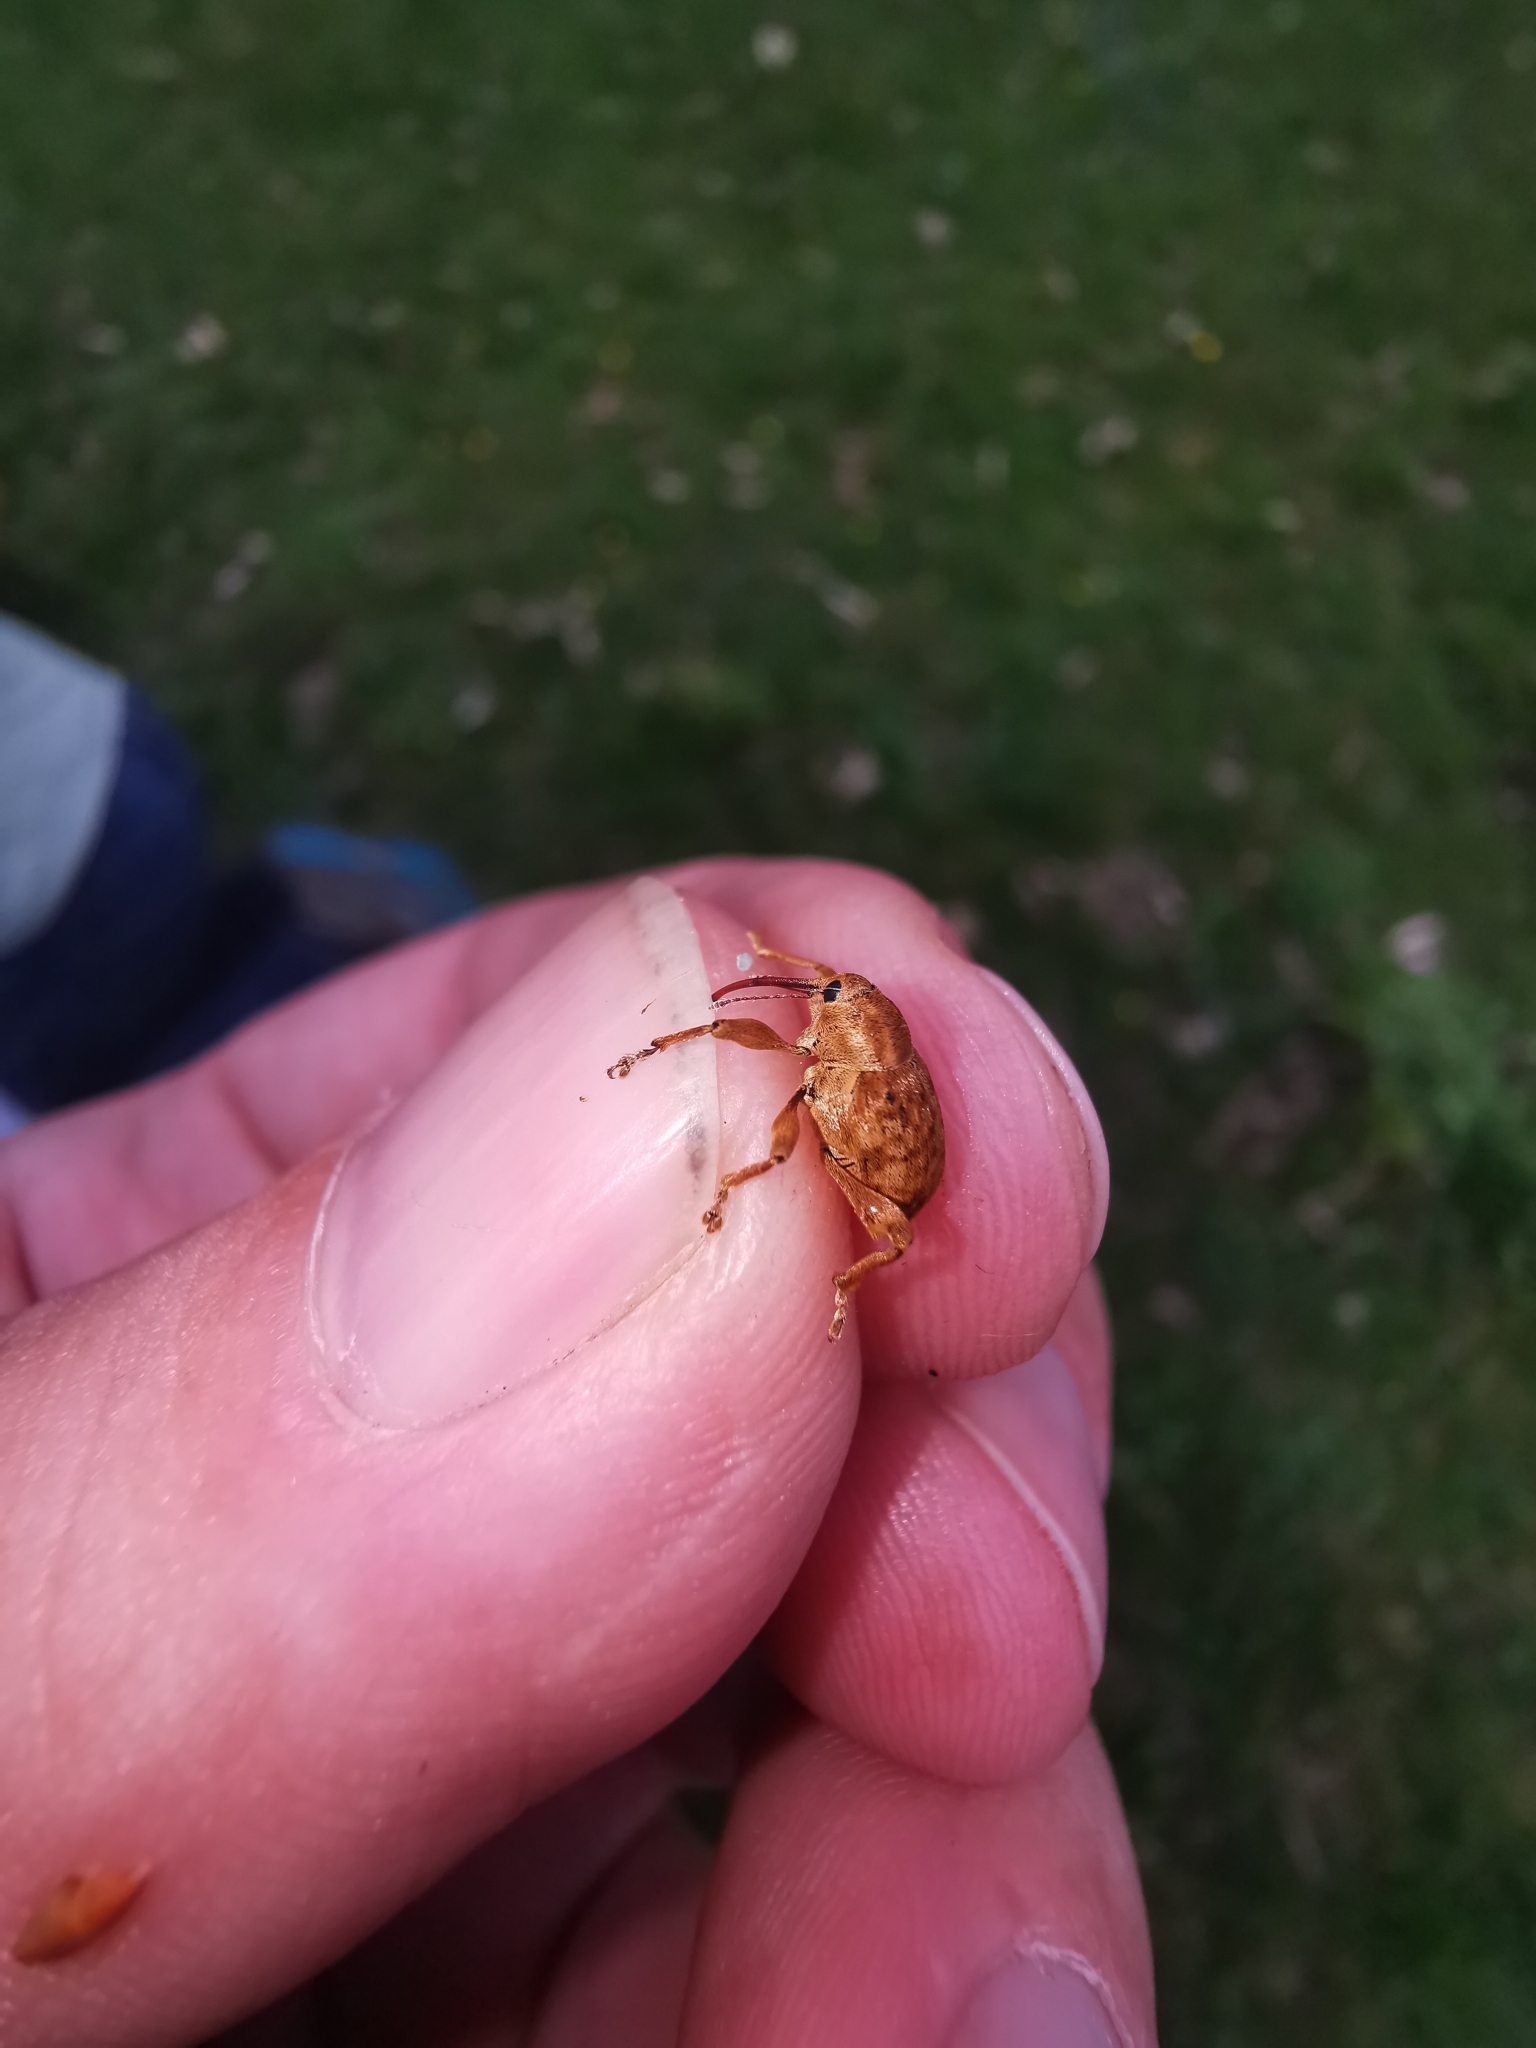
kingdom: Animalia
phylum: Arthropoda
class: Insecta
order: Coleoptera
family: Curculionidae
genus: Curculio
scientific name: Curculio pellitus
